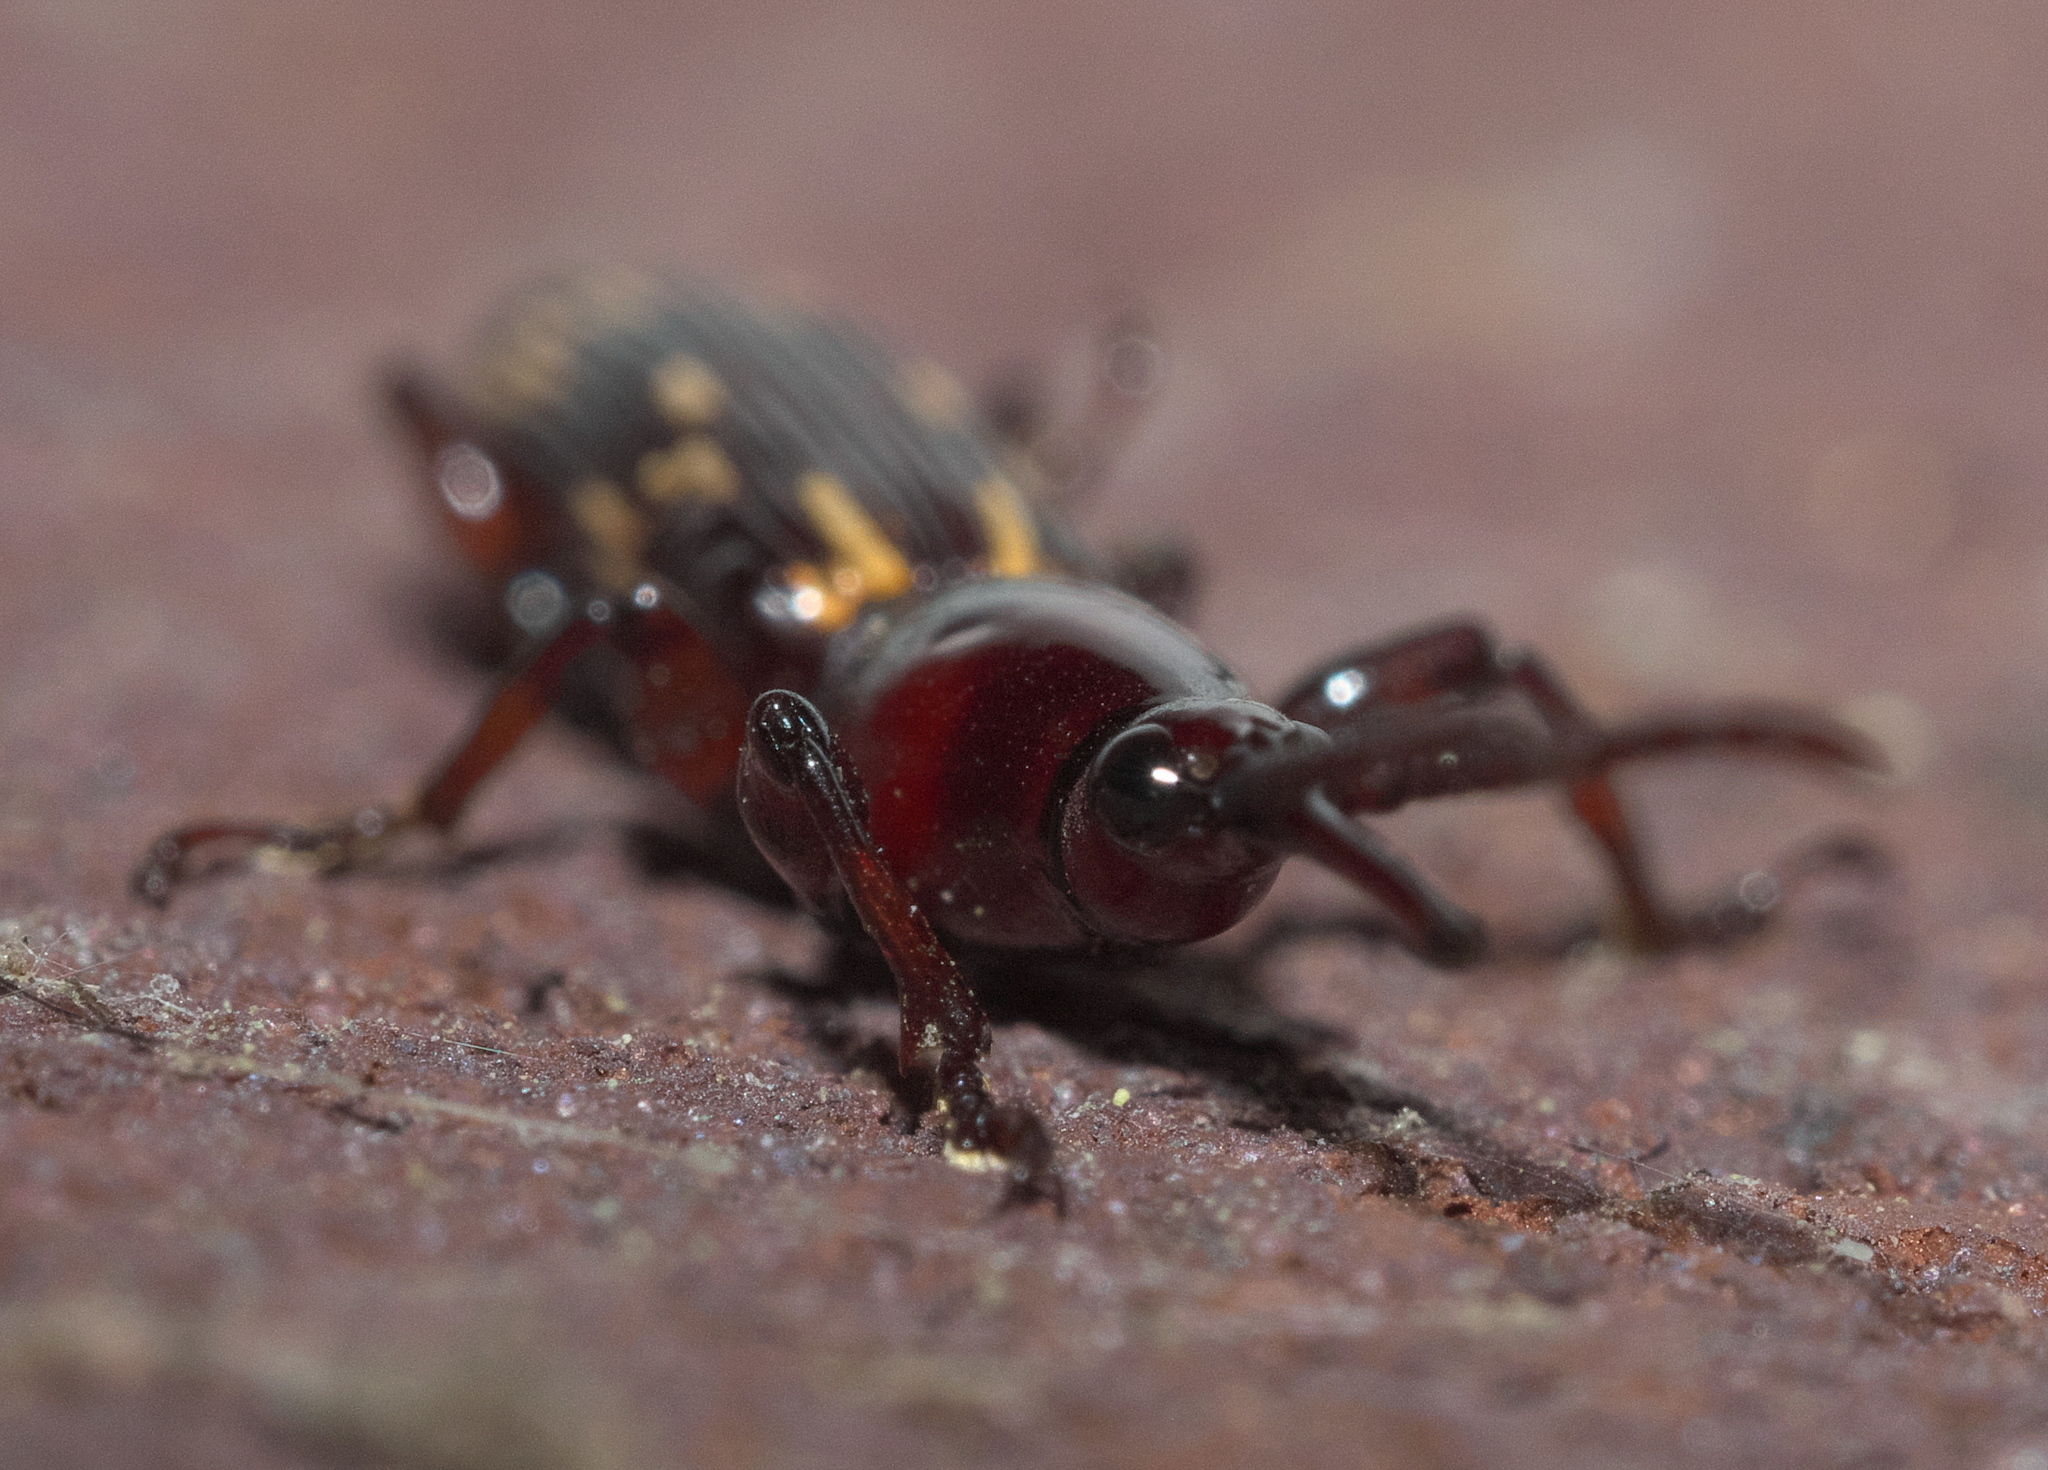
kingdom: Animalia
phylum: Arthropoda
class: Insecta
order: Coleoptera
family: Brentidae
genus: Arrenodes
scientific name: Arrenodes minutus
